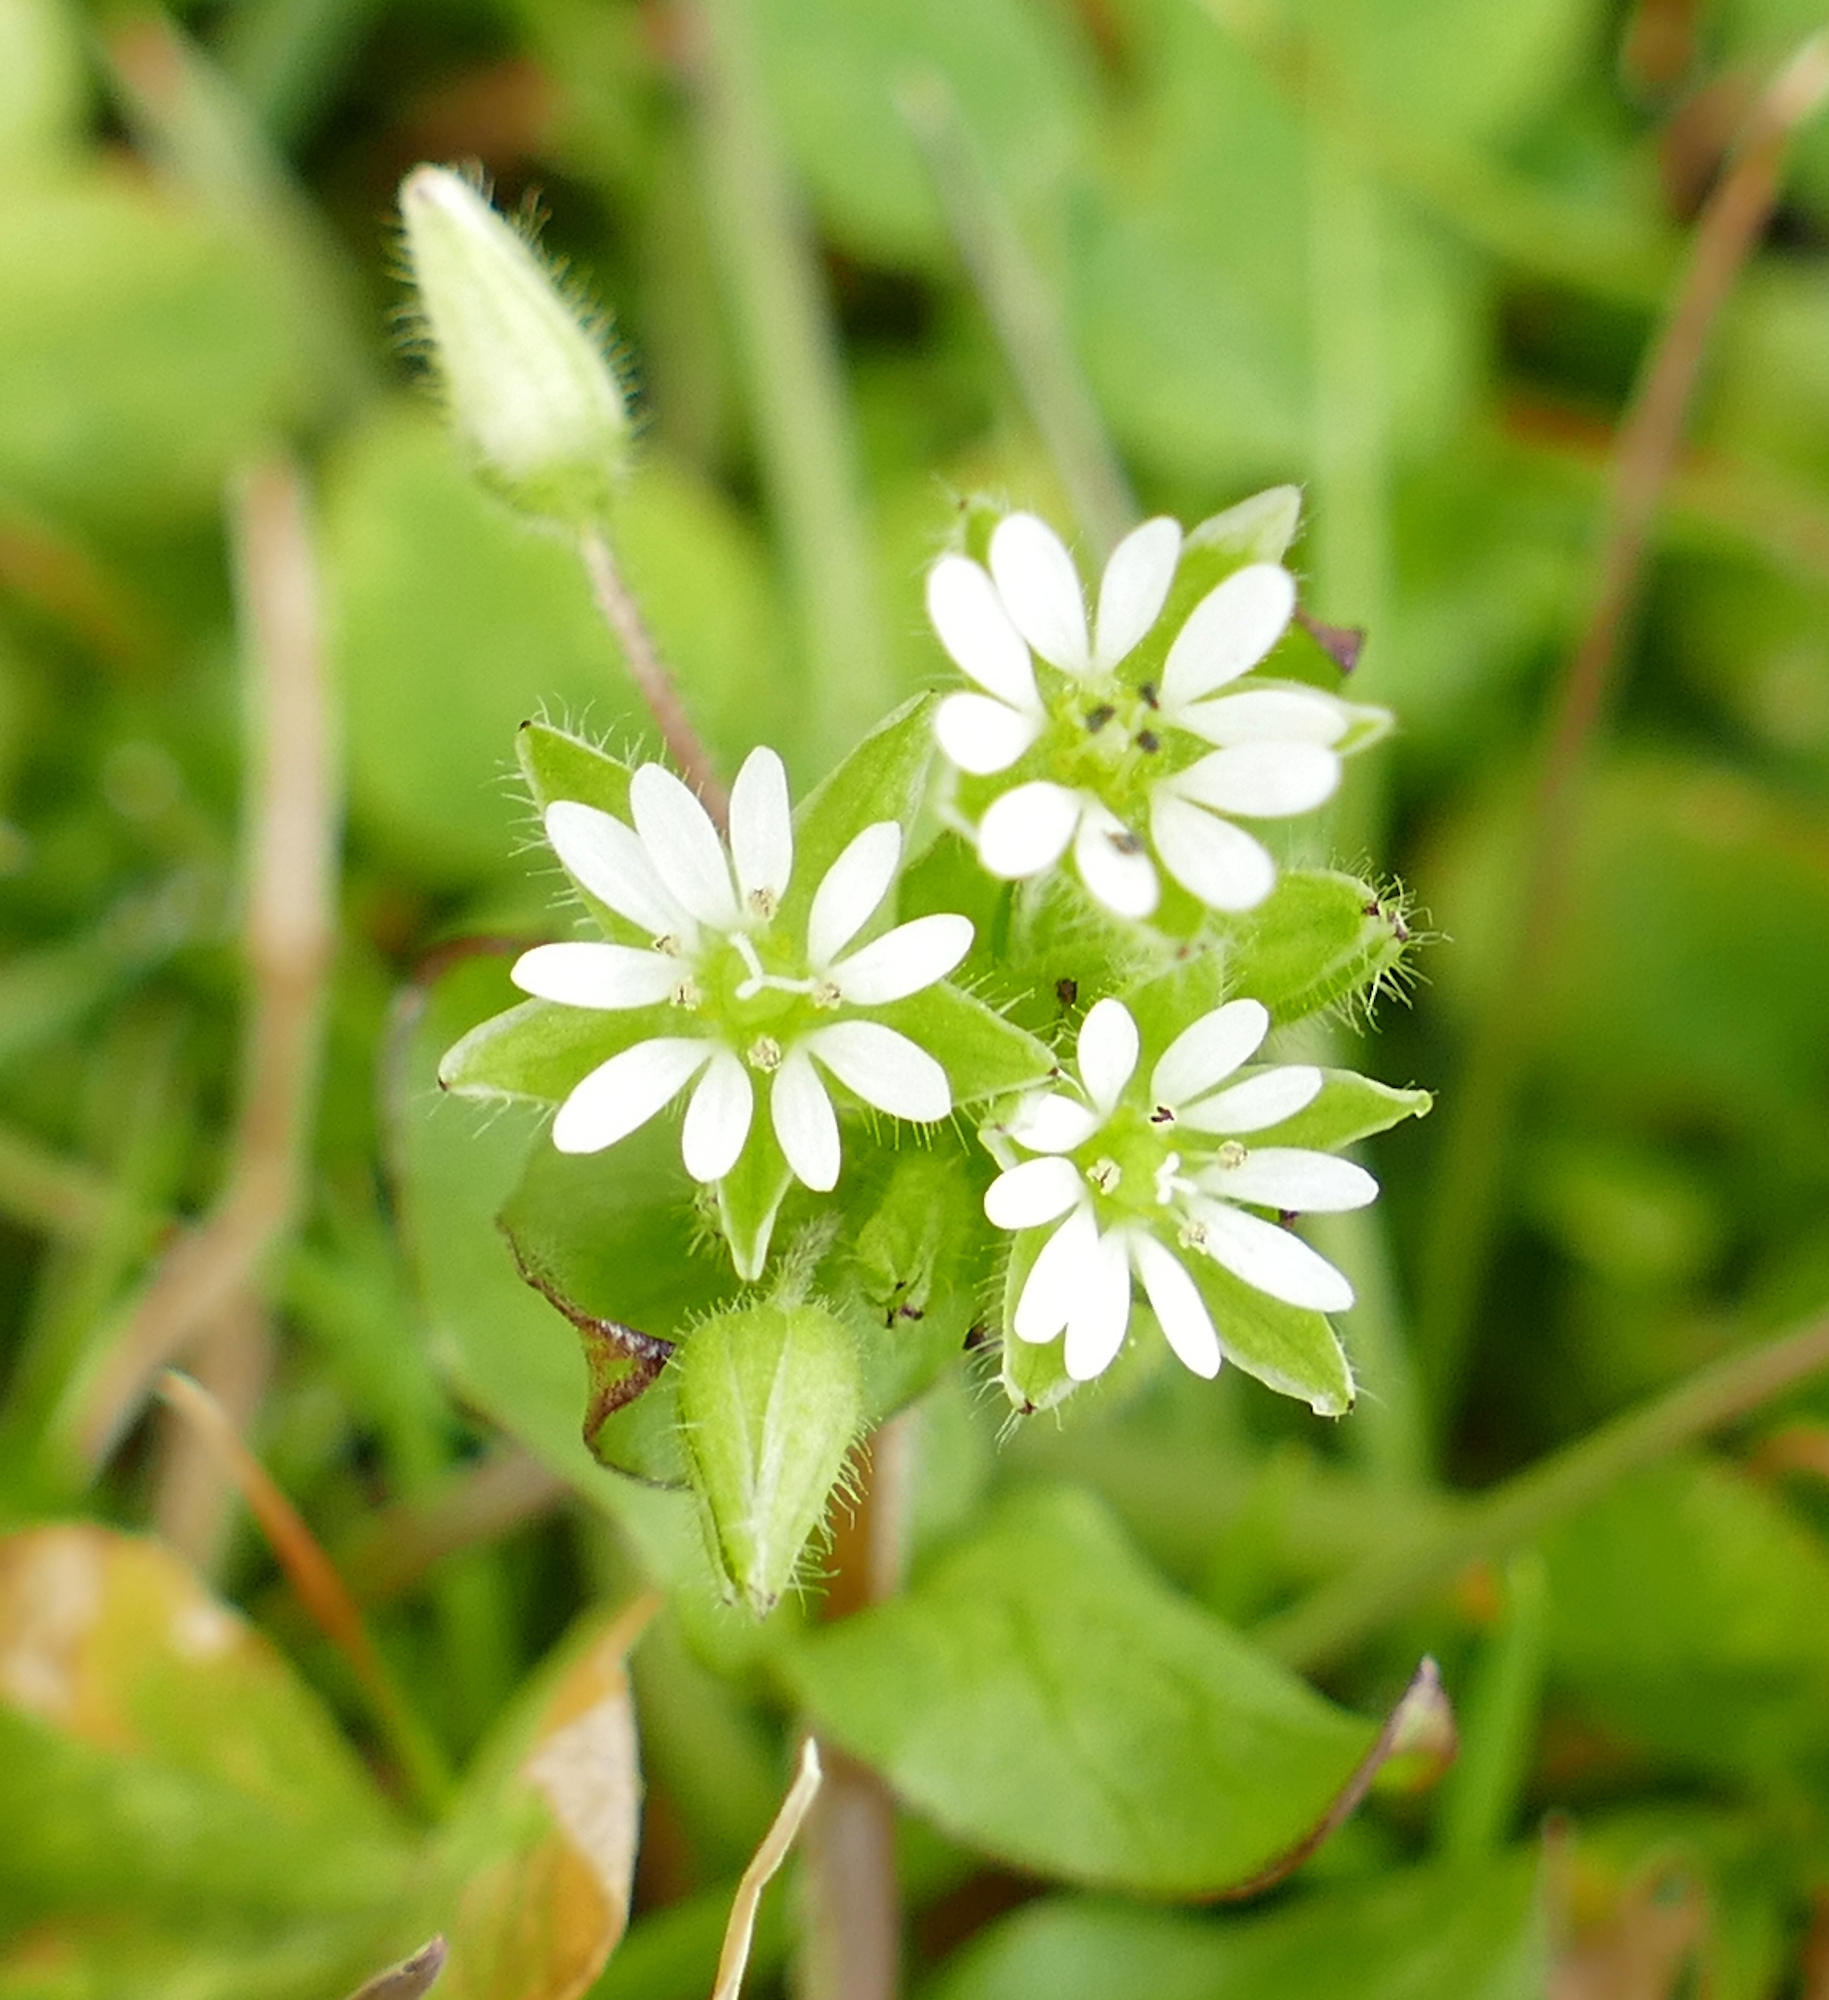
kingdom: Plantae
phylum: Tracheophyta
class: Magnoliopsida
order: Caryophyllales
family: Caryophyllaceae
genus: Stellaria
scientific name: Stellaria media
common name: Common chickweed
